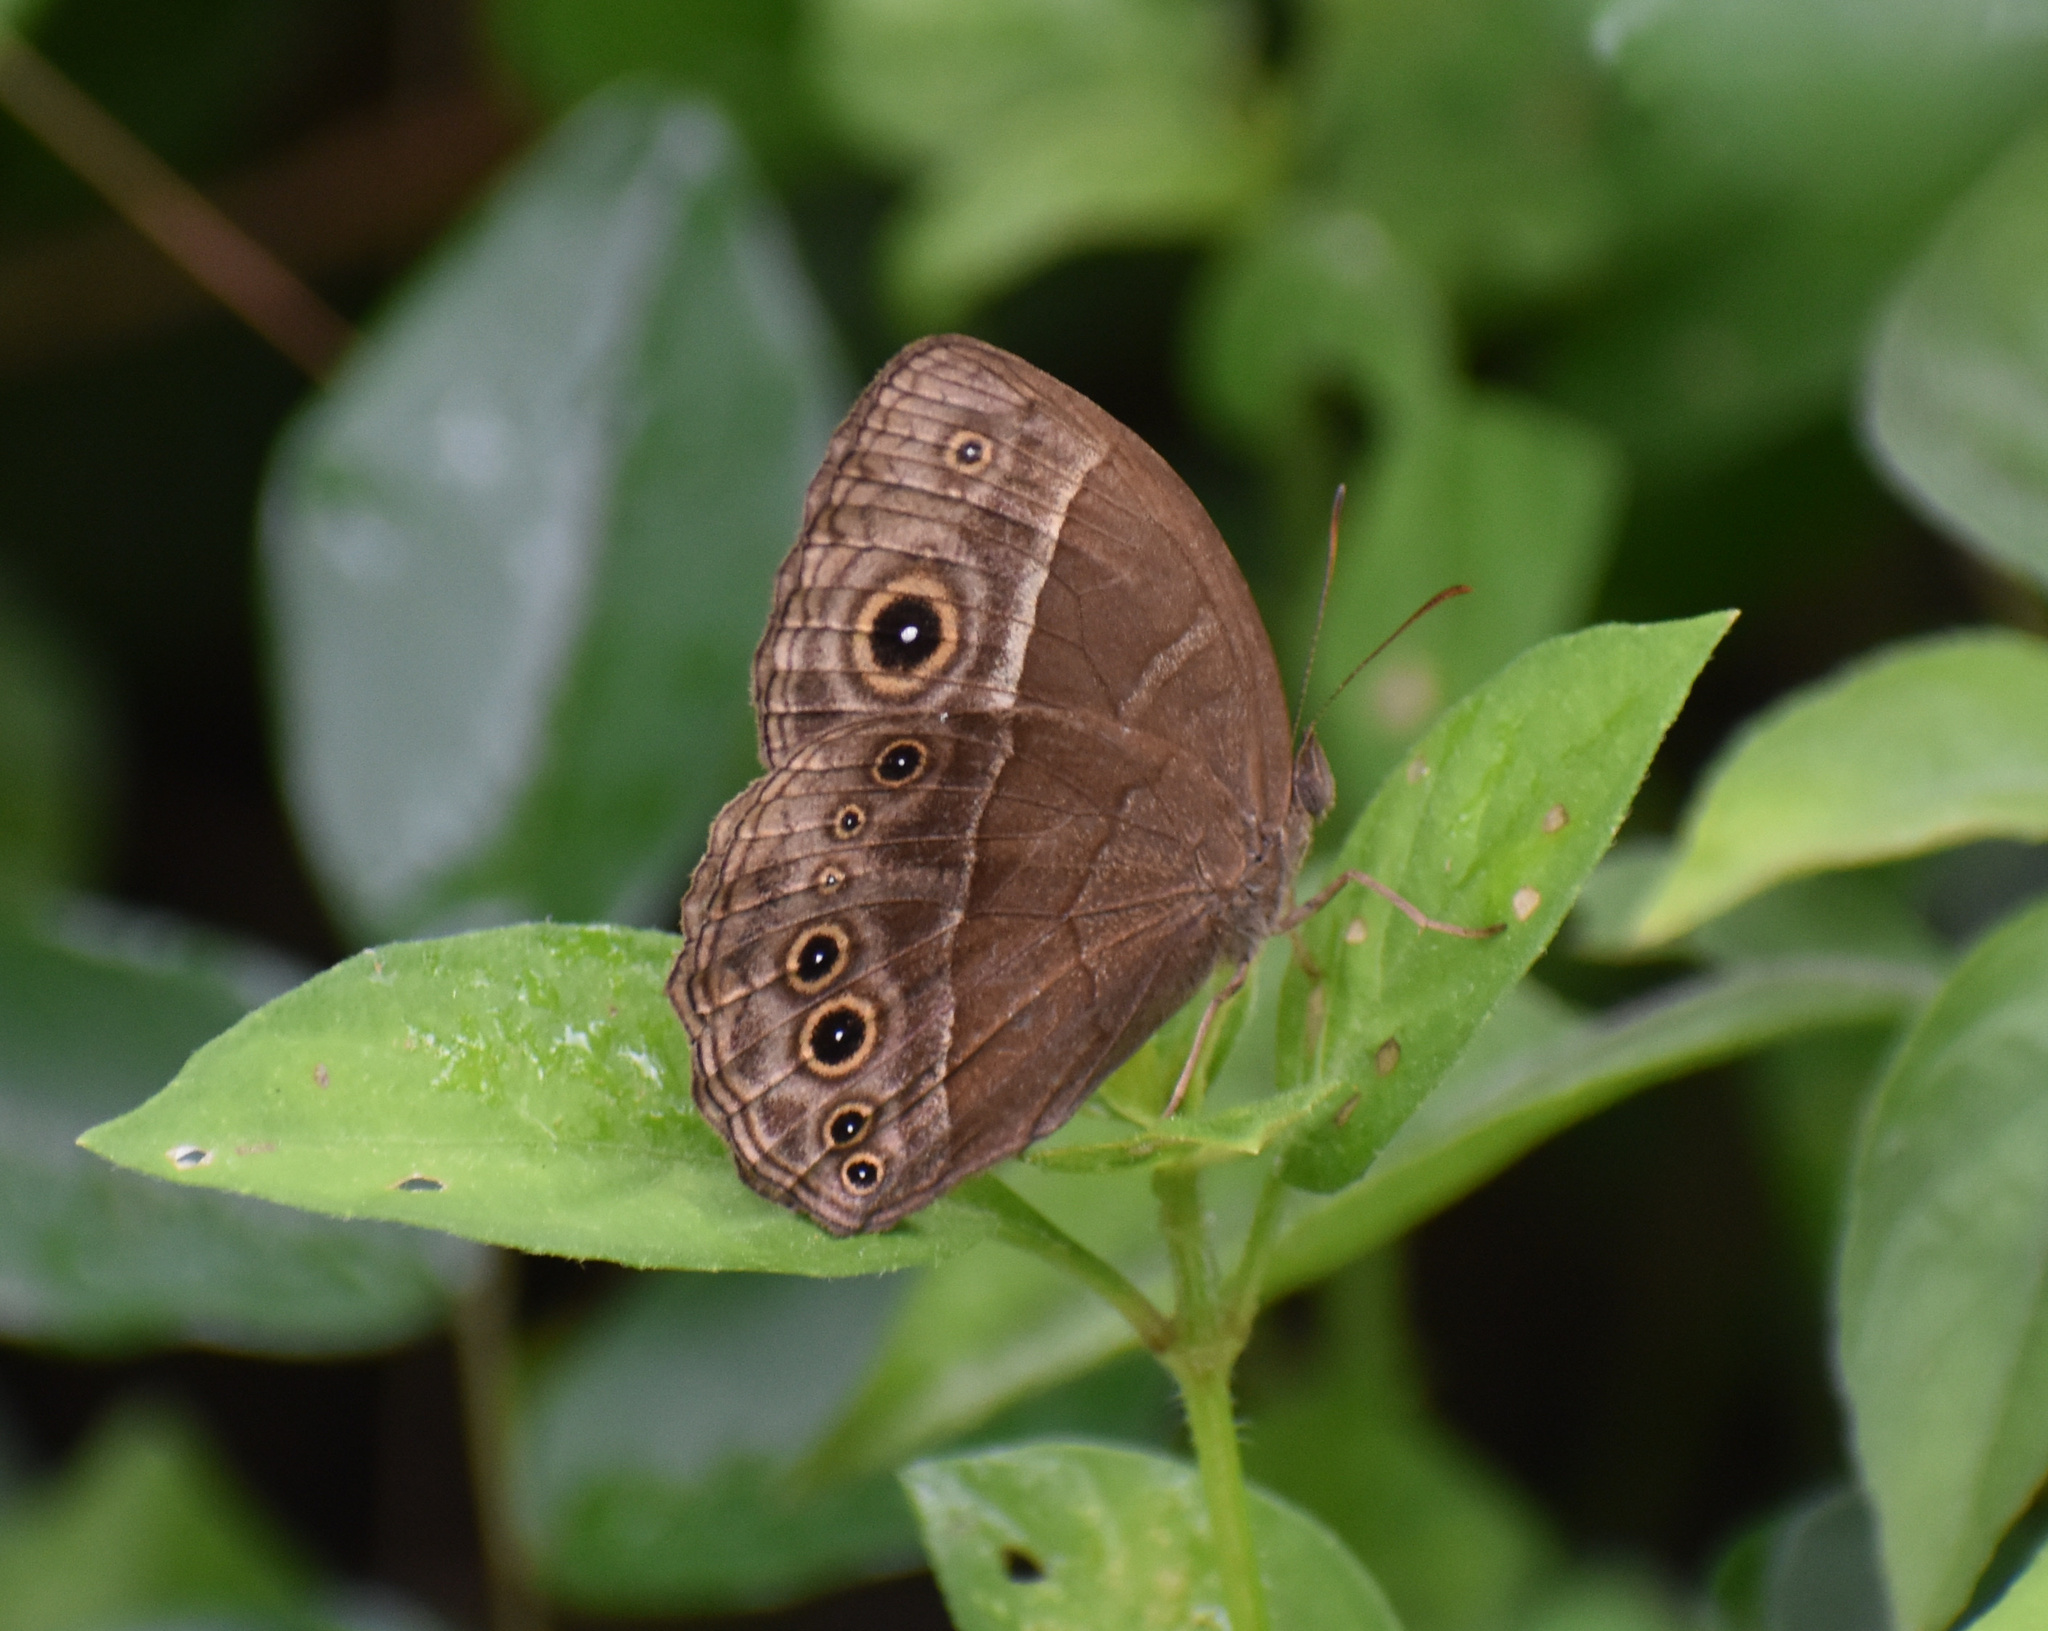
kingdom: Animalia
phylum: Arthropoda
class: Insecta
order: Lepidoptera
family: Nymphalidae
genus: Mycalesis
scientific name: Mycalesis rhacotis
